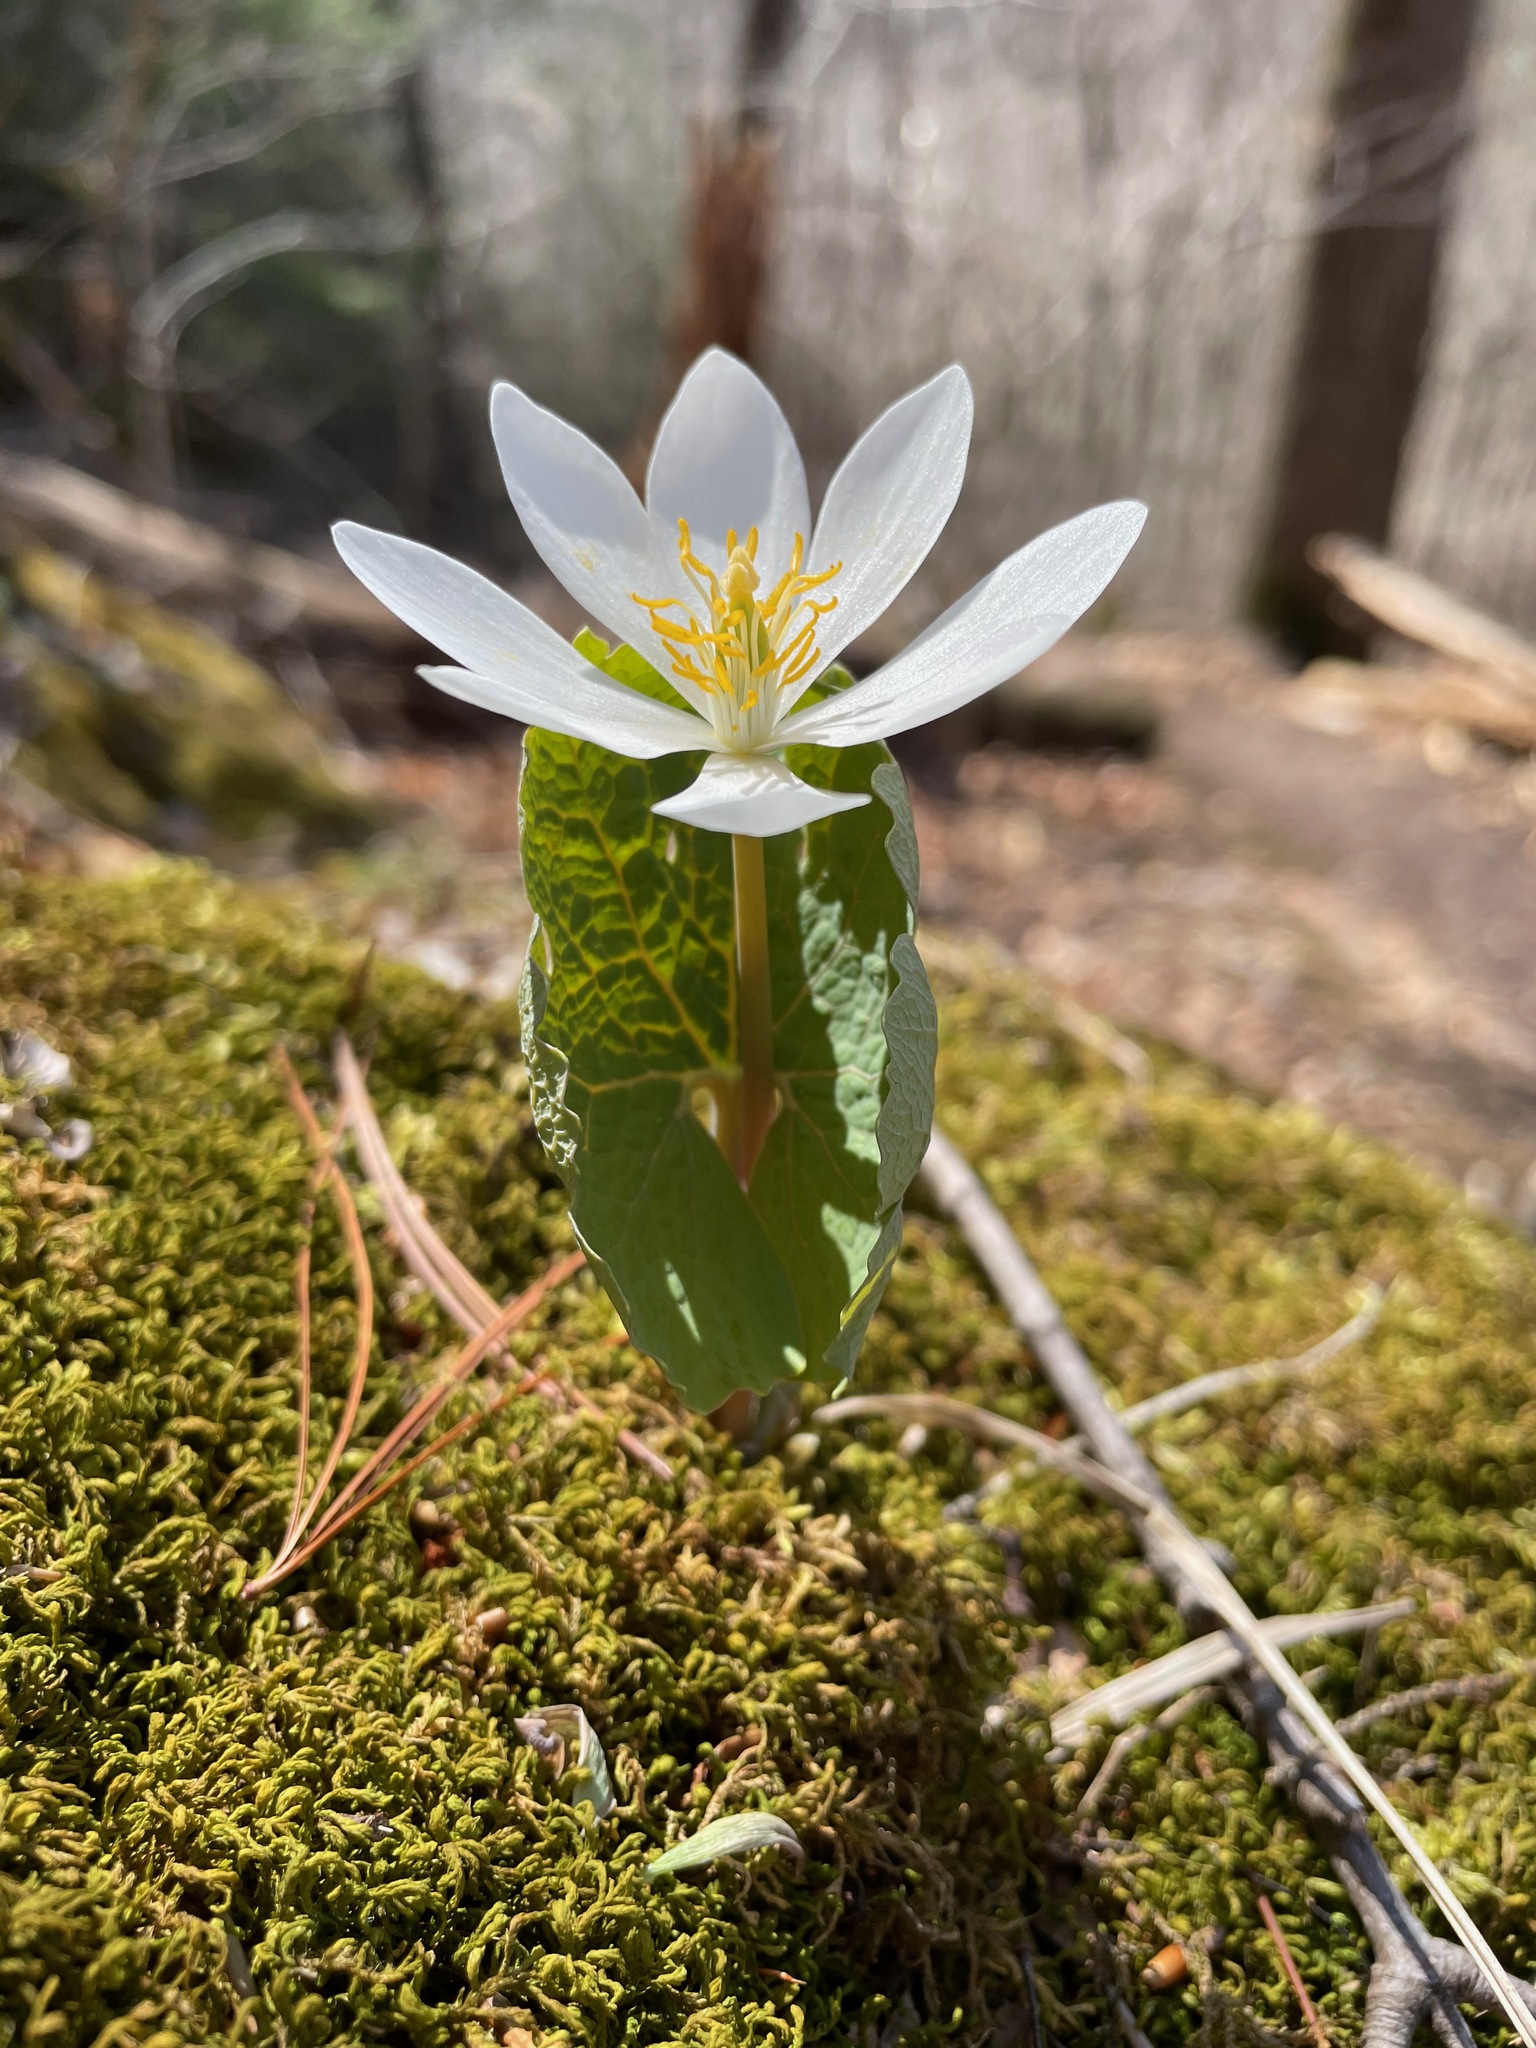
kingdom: Plantae
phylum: Tracheophyta
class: Magnoliopsida
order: Ranunculales
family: Papaveraceae
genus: Sanguinaria
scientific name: Sanguinaria canadensis
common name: Bloodroot
